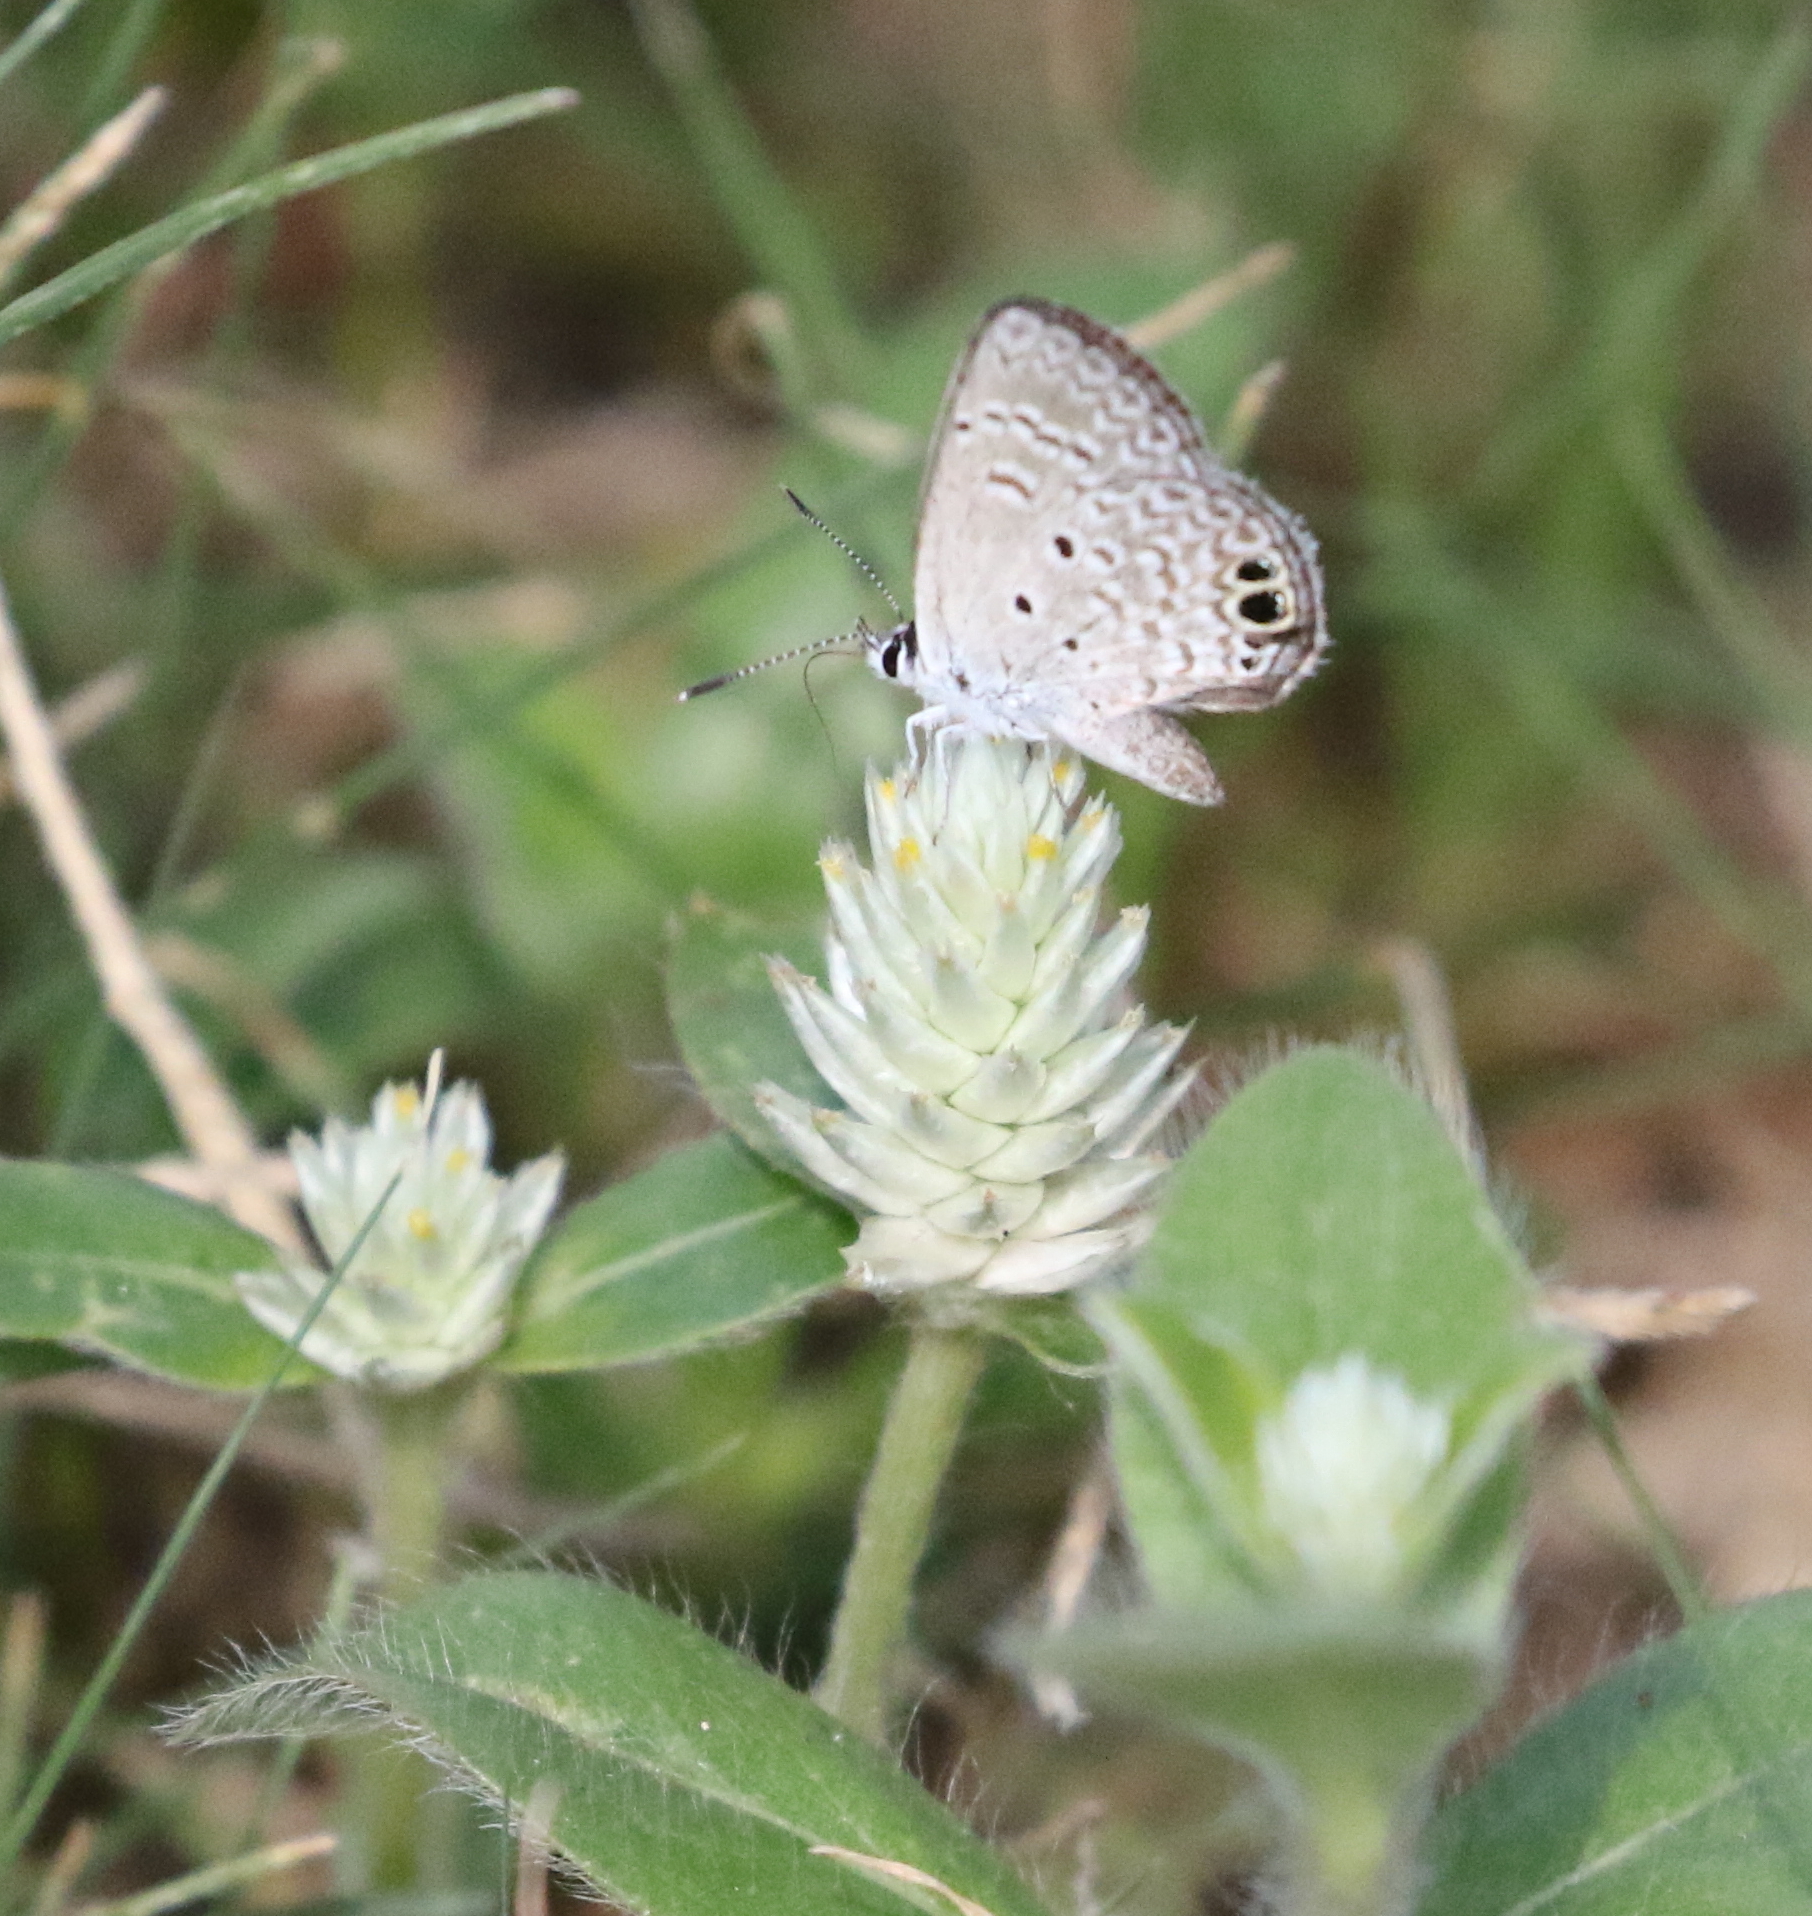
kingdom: Animalia
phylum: Arthropoda
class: Insecta
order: Lepidoptera
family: Lycaenidae
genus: Hemiargus
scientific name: Hemiargus ceraunus
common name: Ceraunus blue
